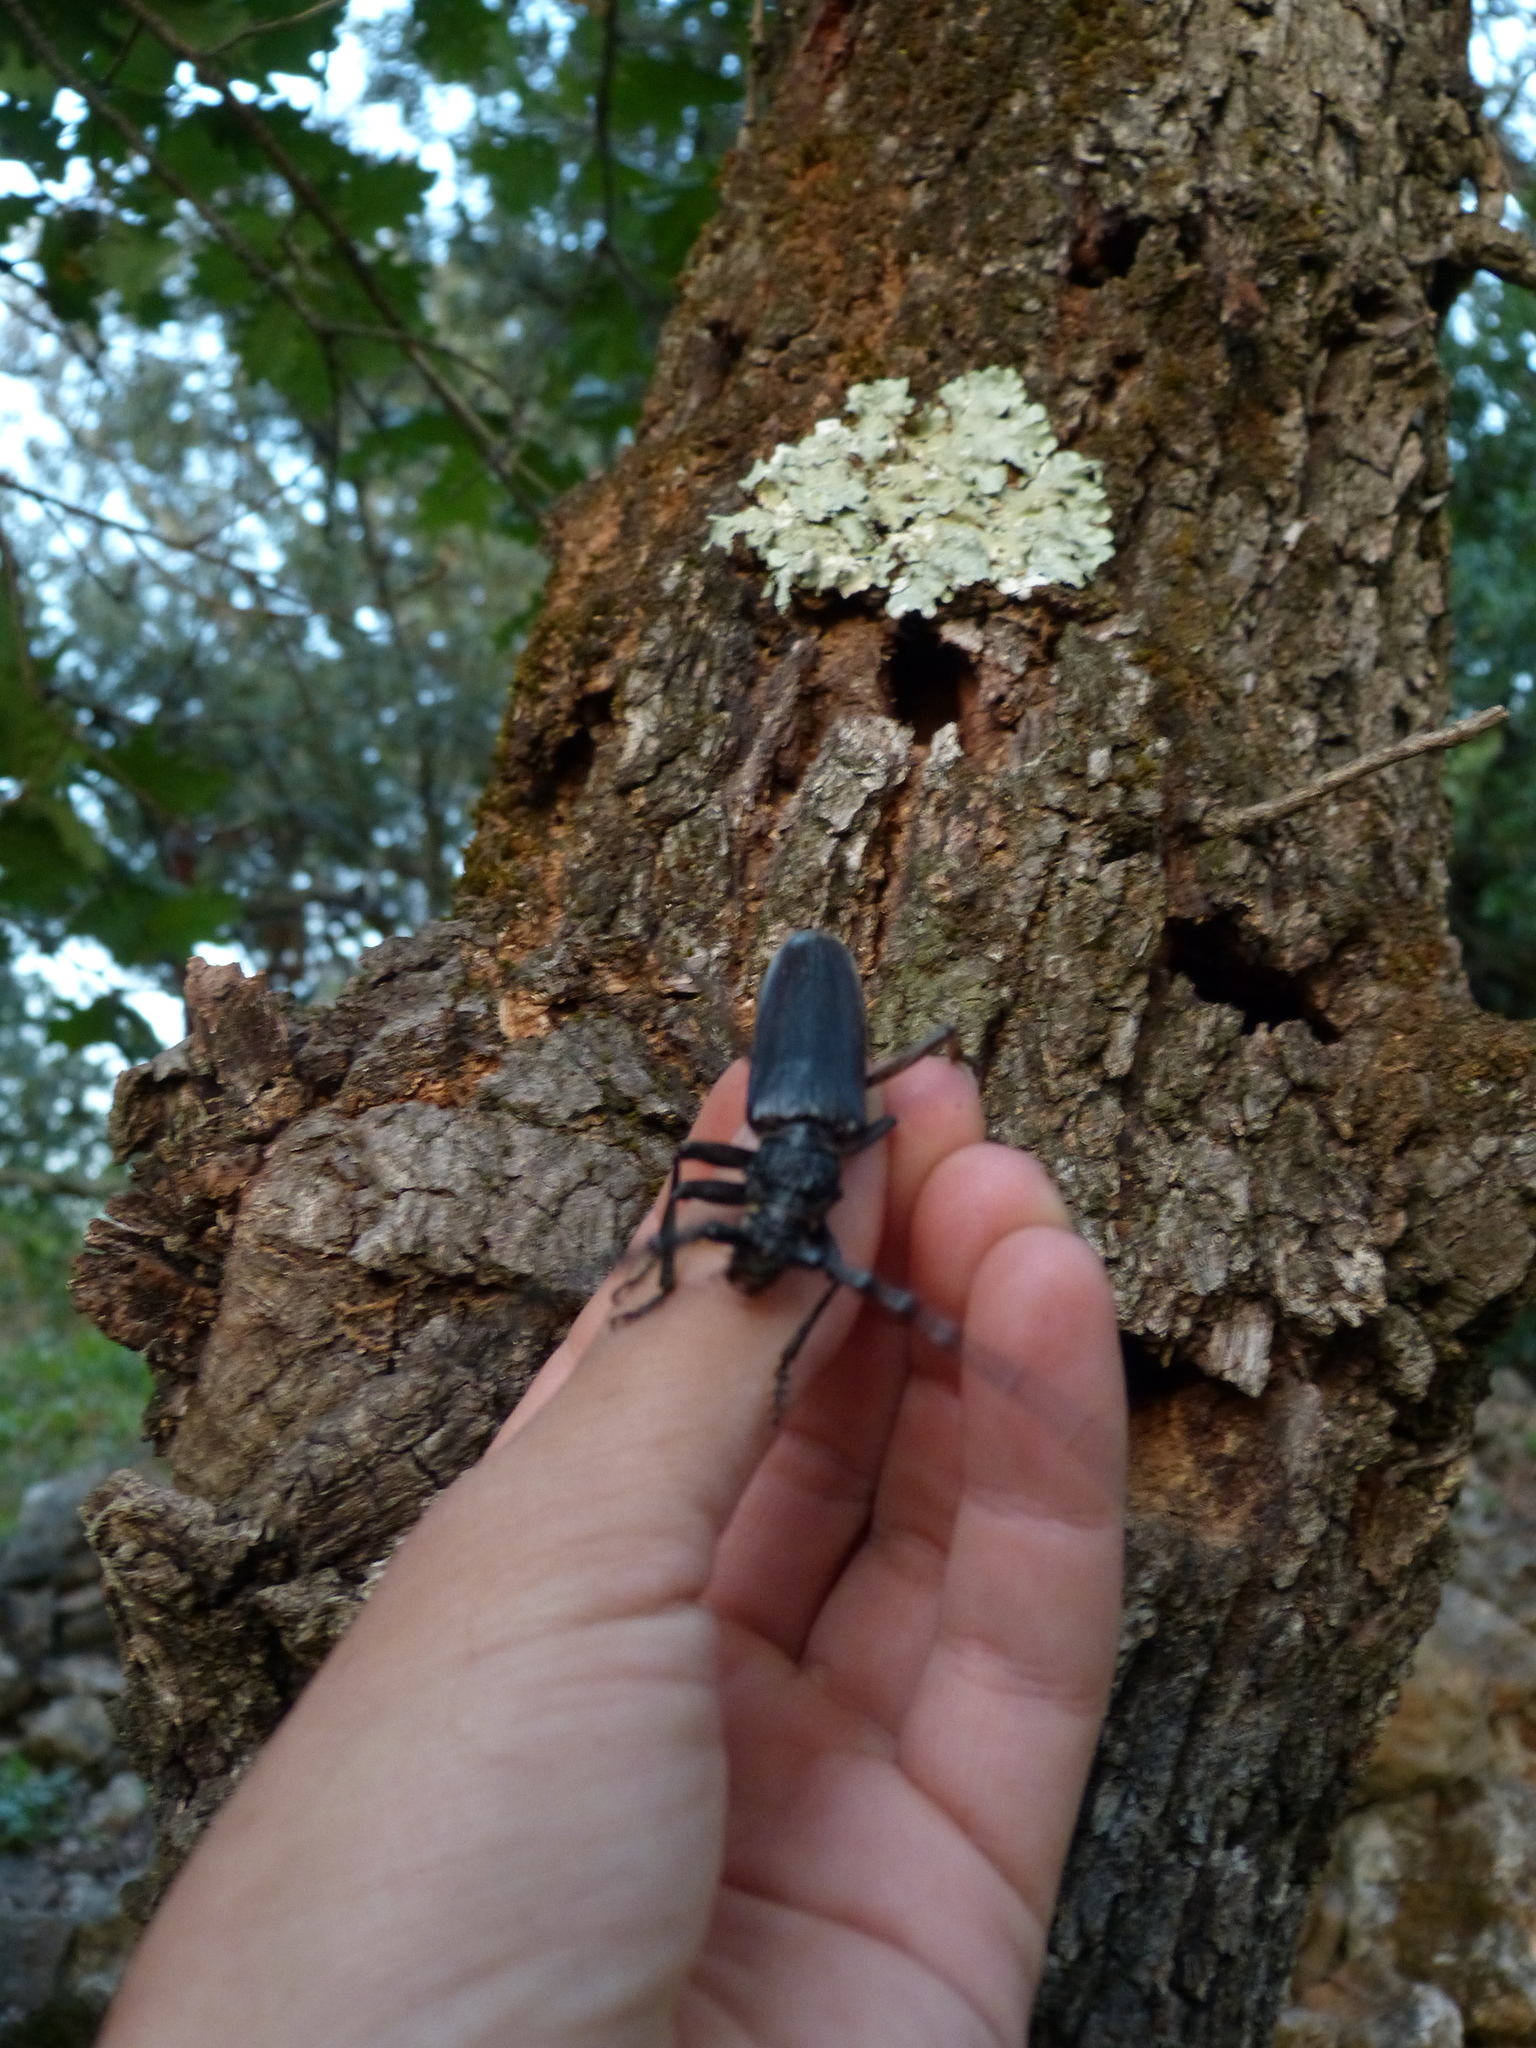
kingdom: Animalia
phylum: Arthropoda
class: Insecta
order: Coleoptera
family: Cerambycidae
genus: Cerambyx
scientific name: Cerambyx cerdo
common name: Cerambyx longicorn
